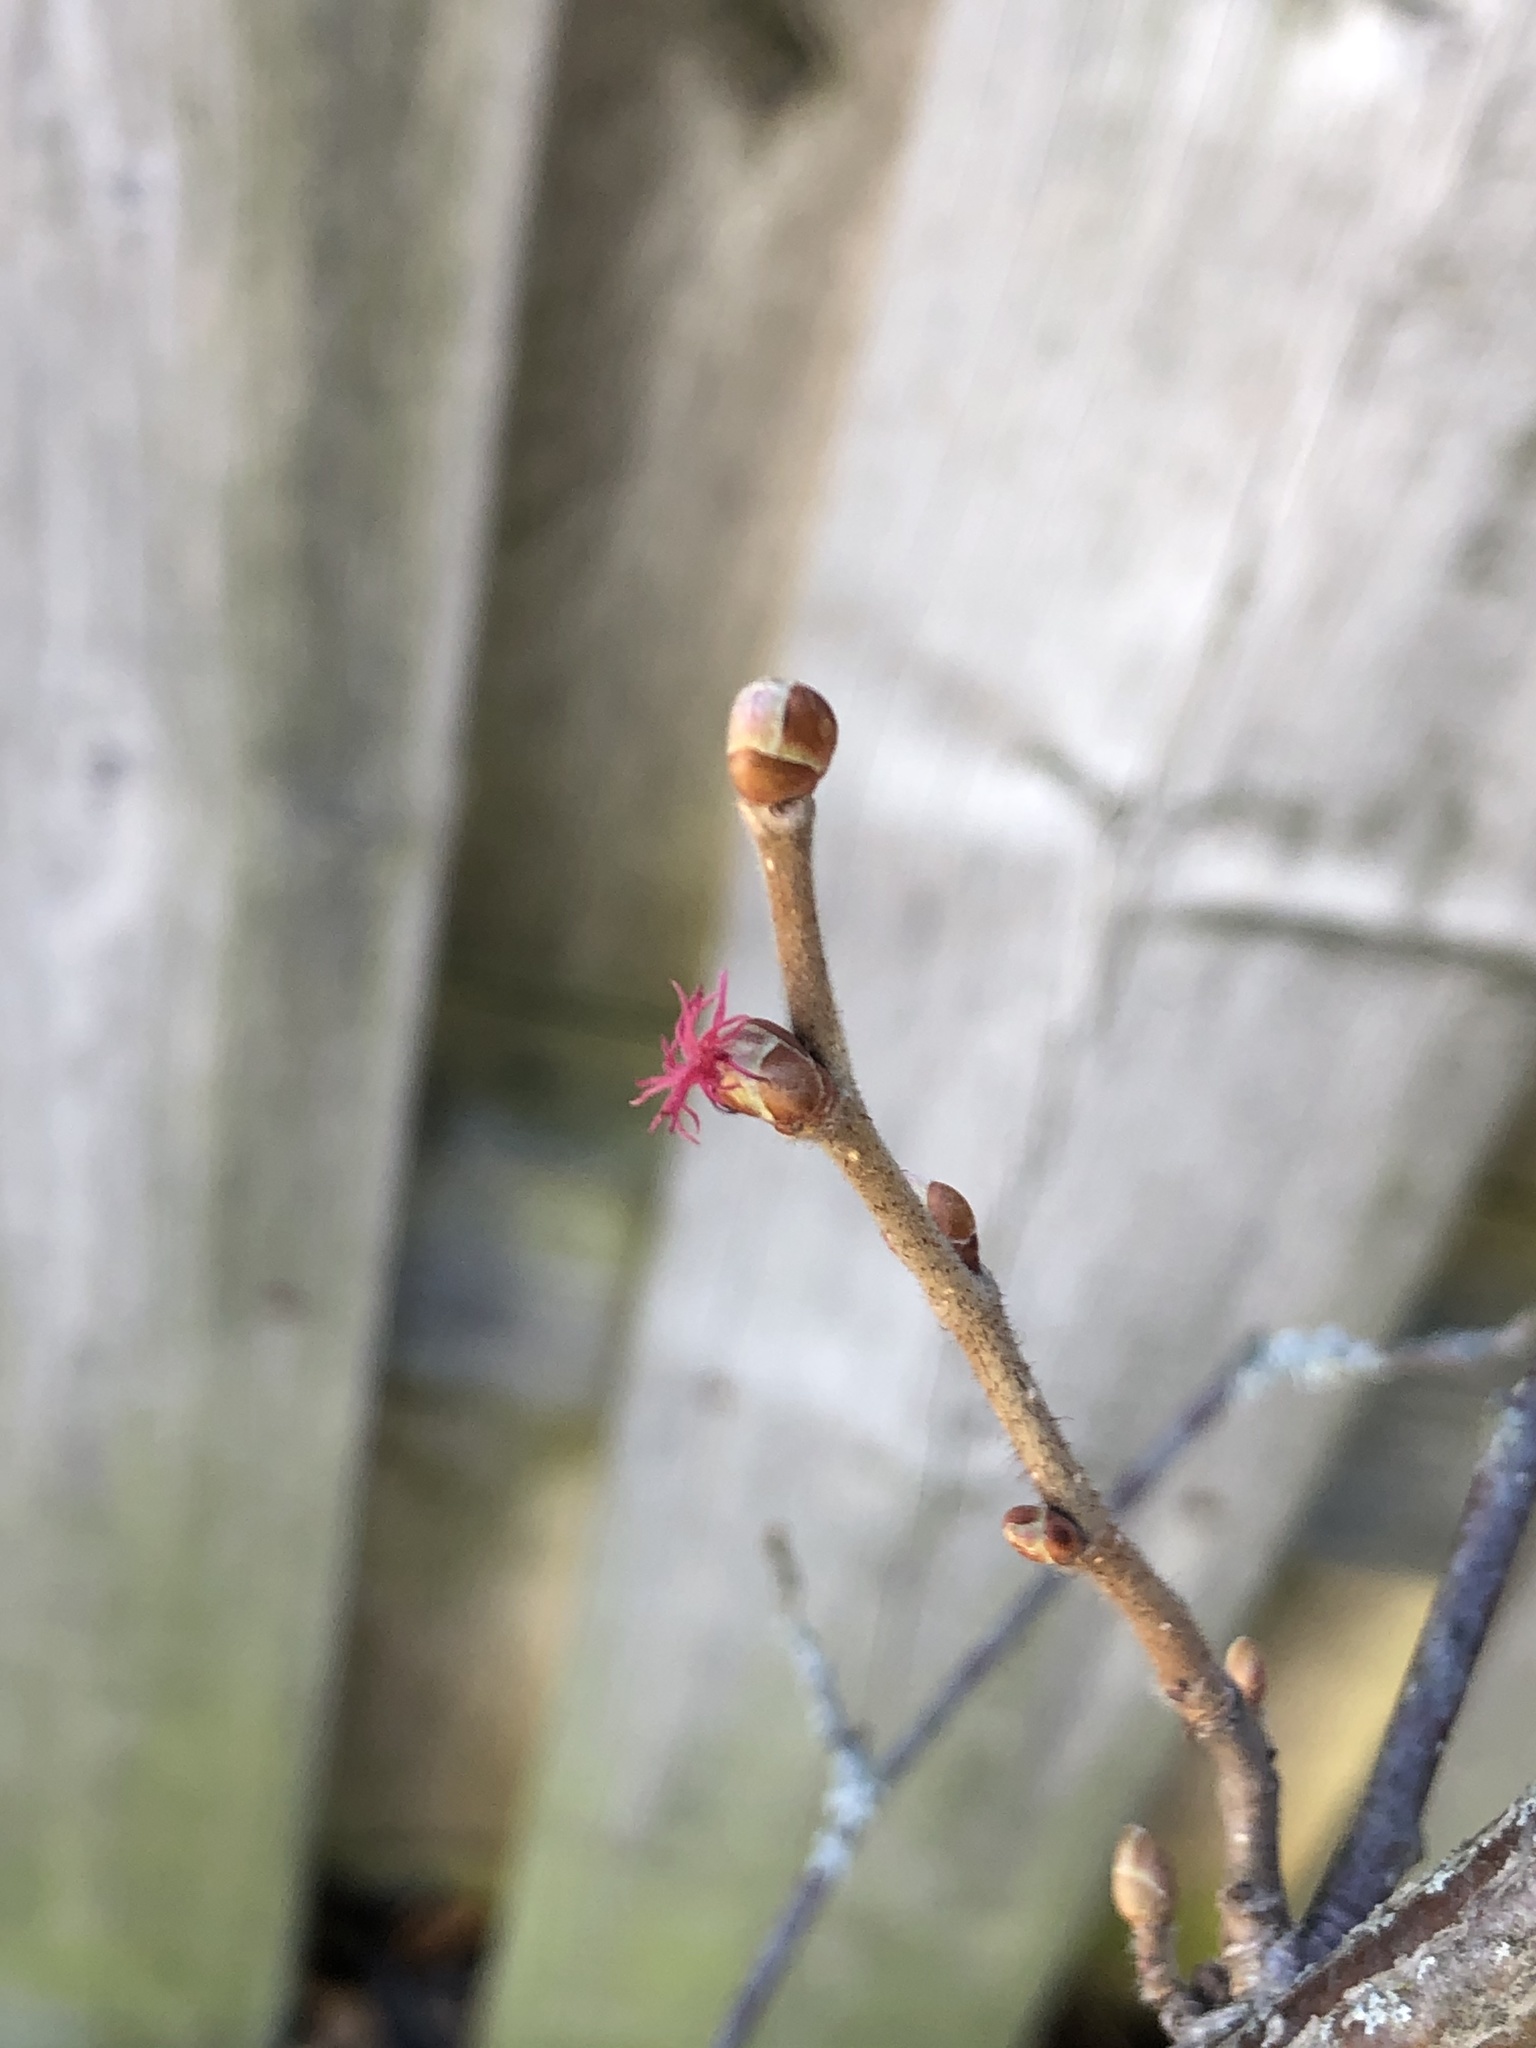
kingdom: Plantae
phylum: Tracheophyta
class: Magnoliopsida
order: Fagales
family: Betulaceae
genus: Corylus
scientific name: Corylus americana
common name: American hazel
